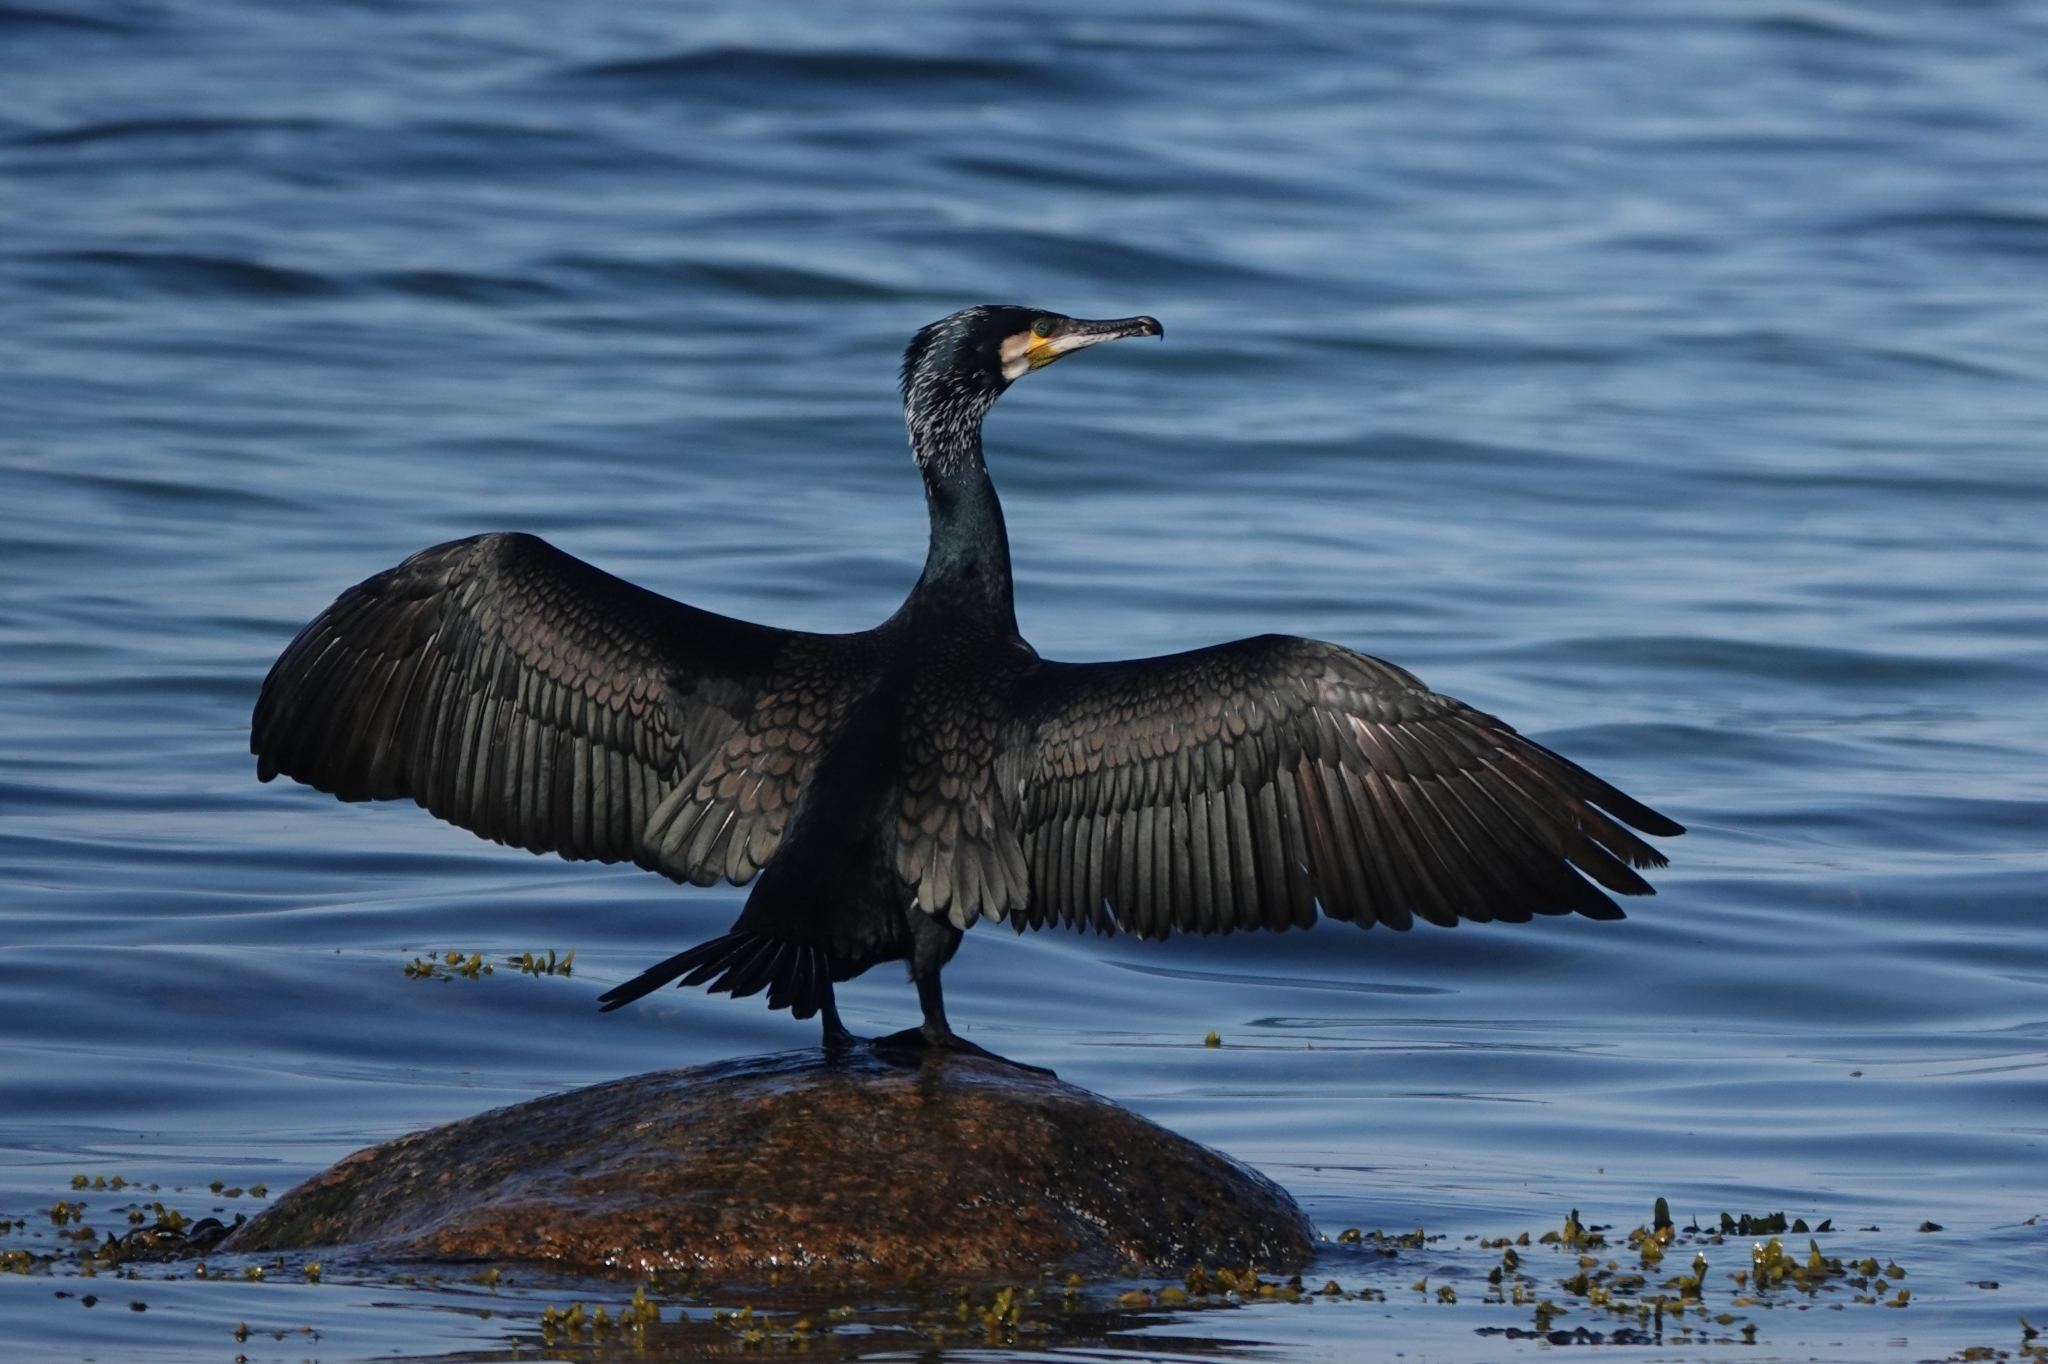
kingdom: Animalia
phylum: Chordata
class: Aves
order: Suliformes
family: Phalacrocoracidae
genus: Phalacrocorax
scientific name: Phalacrocorax carbo
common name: Great cormorant
